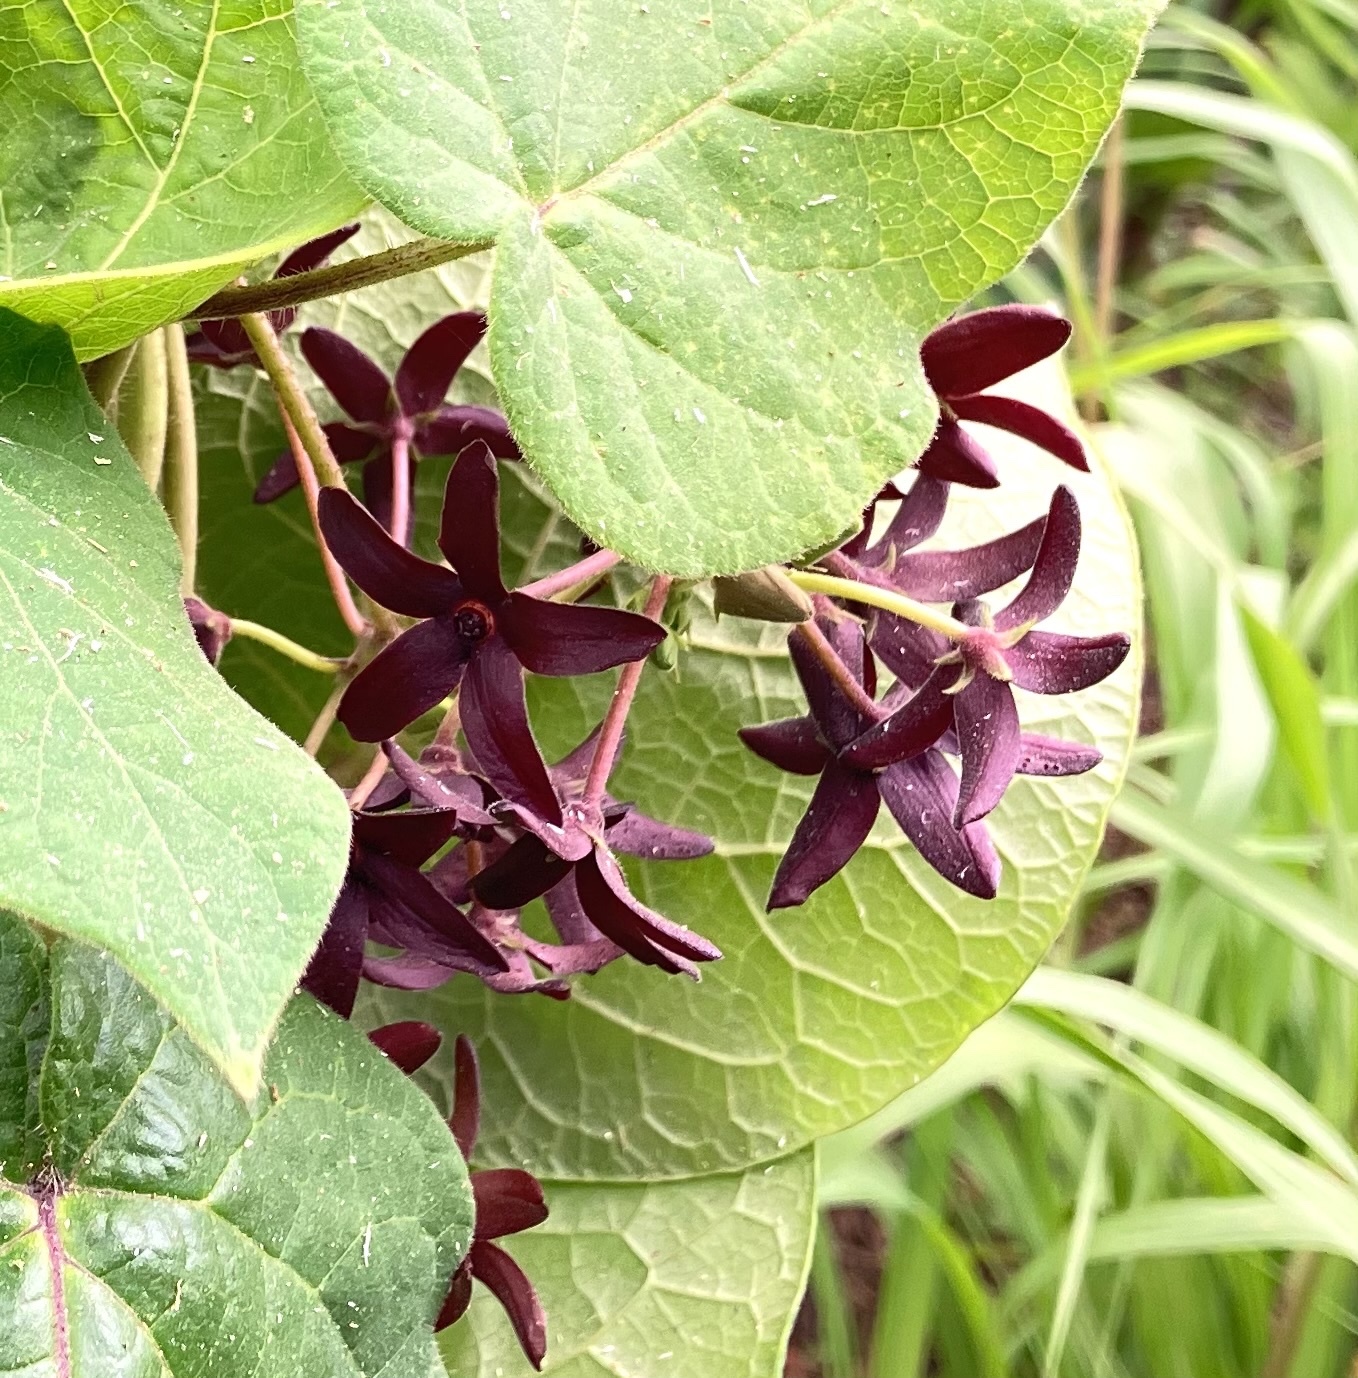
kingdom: Plantae
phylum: Tracheophyta
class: Magnoliopsida
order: Gentianales
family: Apocynaceae
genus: Matelea
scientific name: Matelea carolinensis
